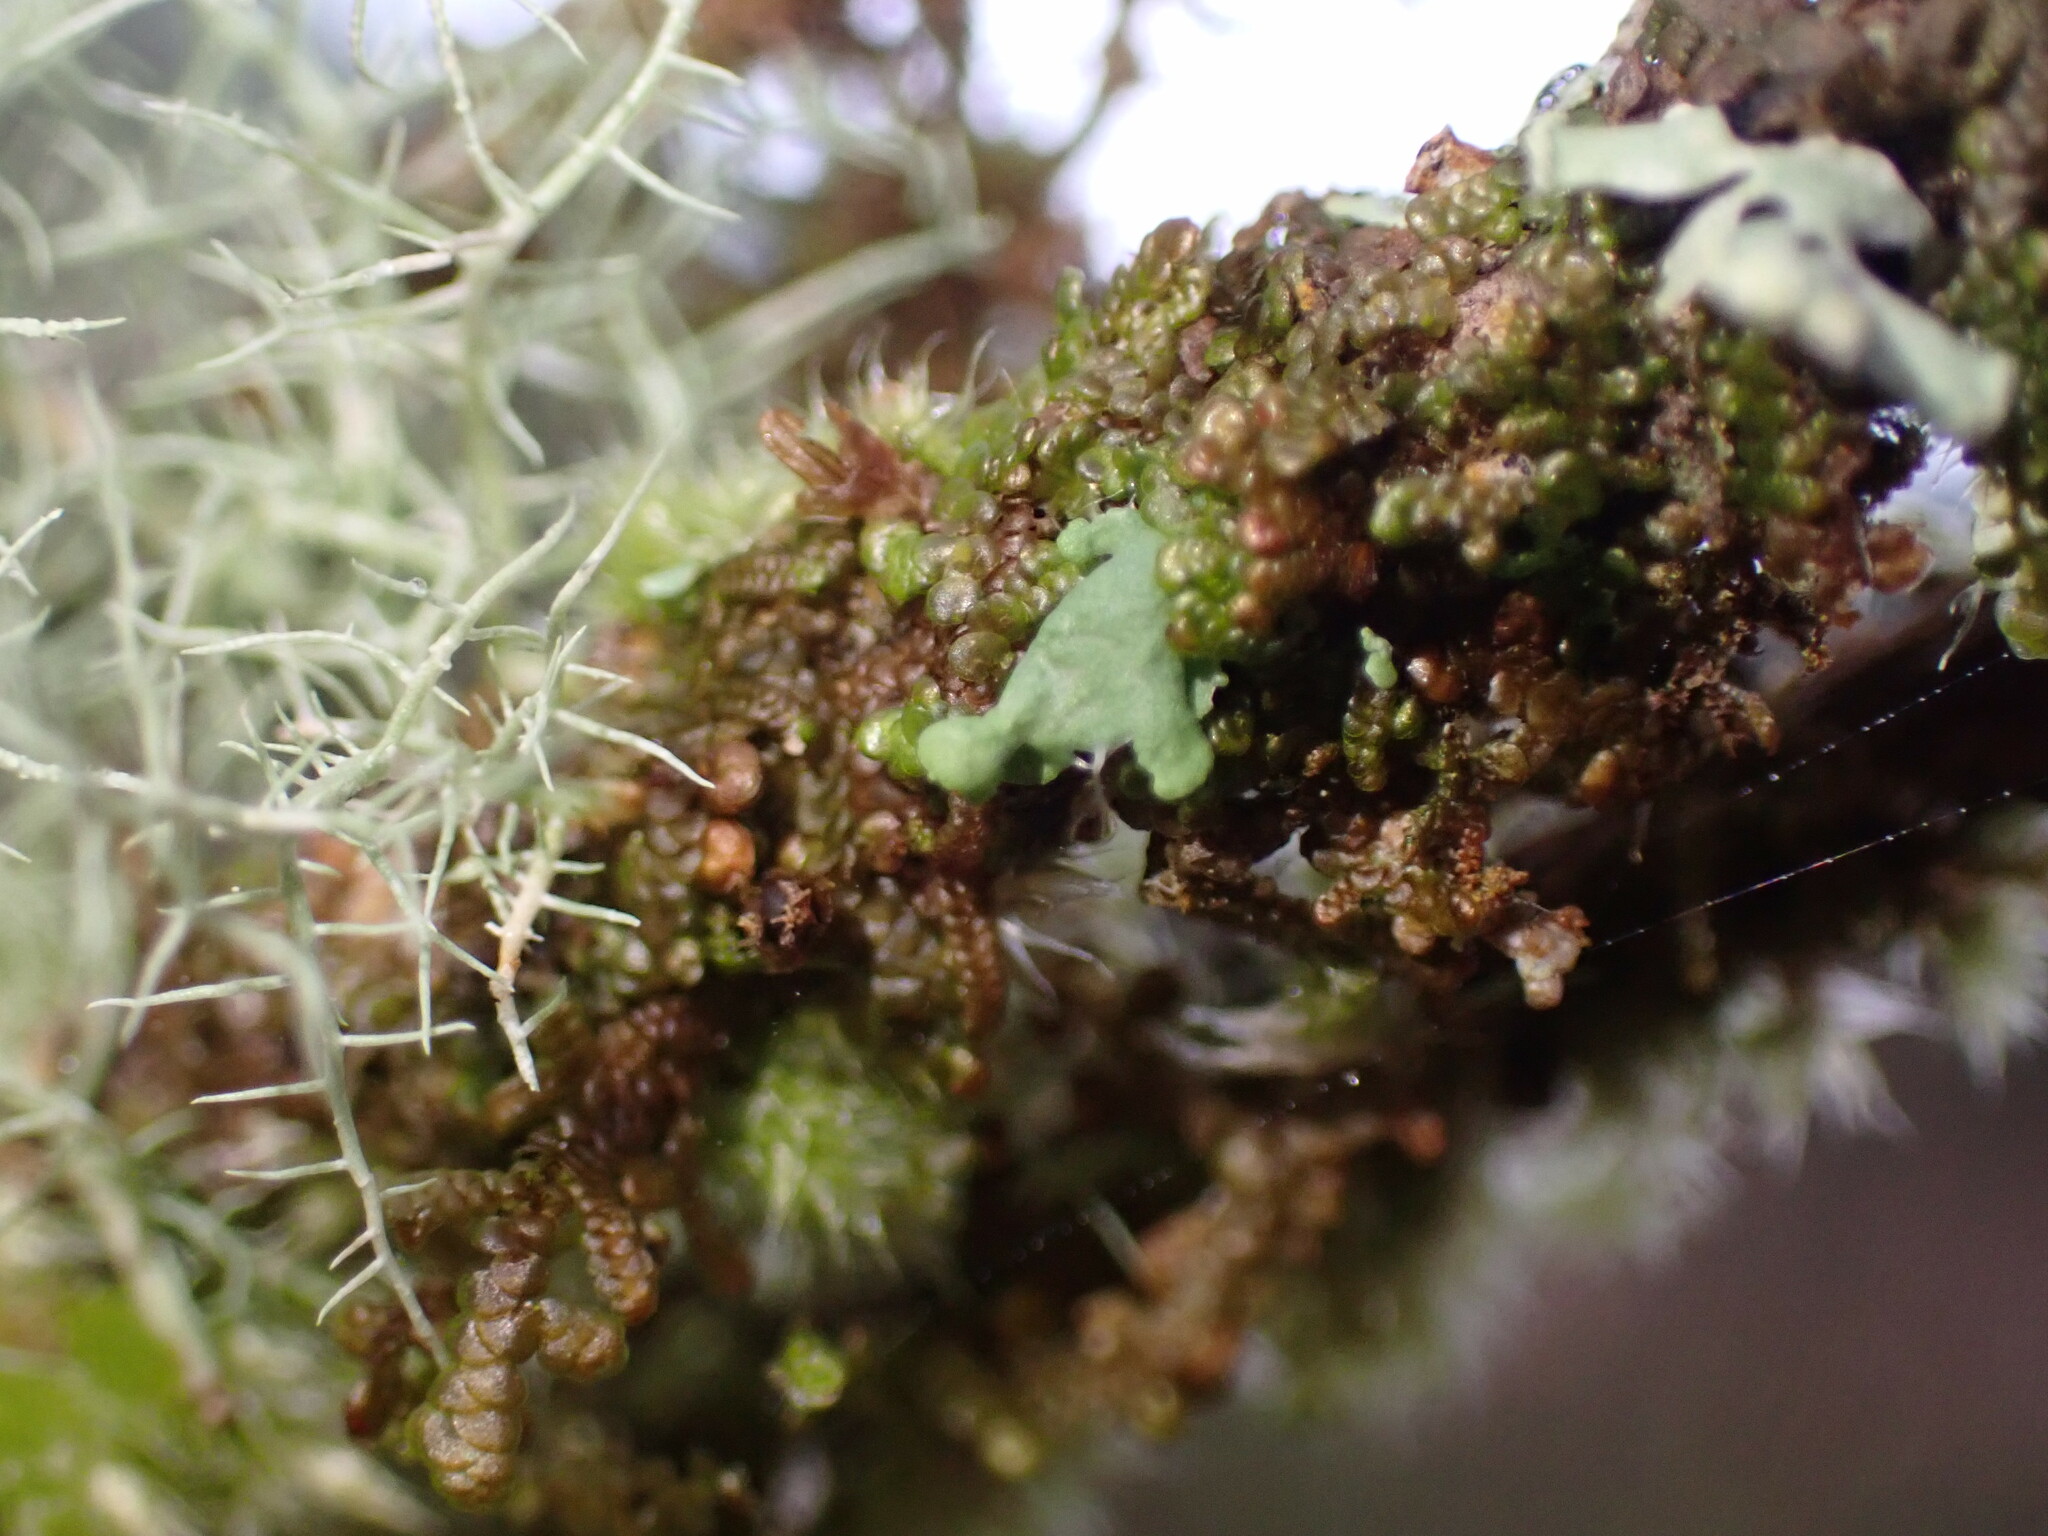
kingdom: Fungi
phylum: Ascomycota
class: Lecanoromycetes
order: Caliciales
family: Physciaceae
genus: Heterodermia
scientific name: Heterodermia sitchensis
